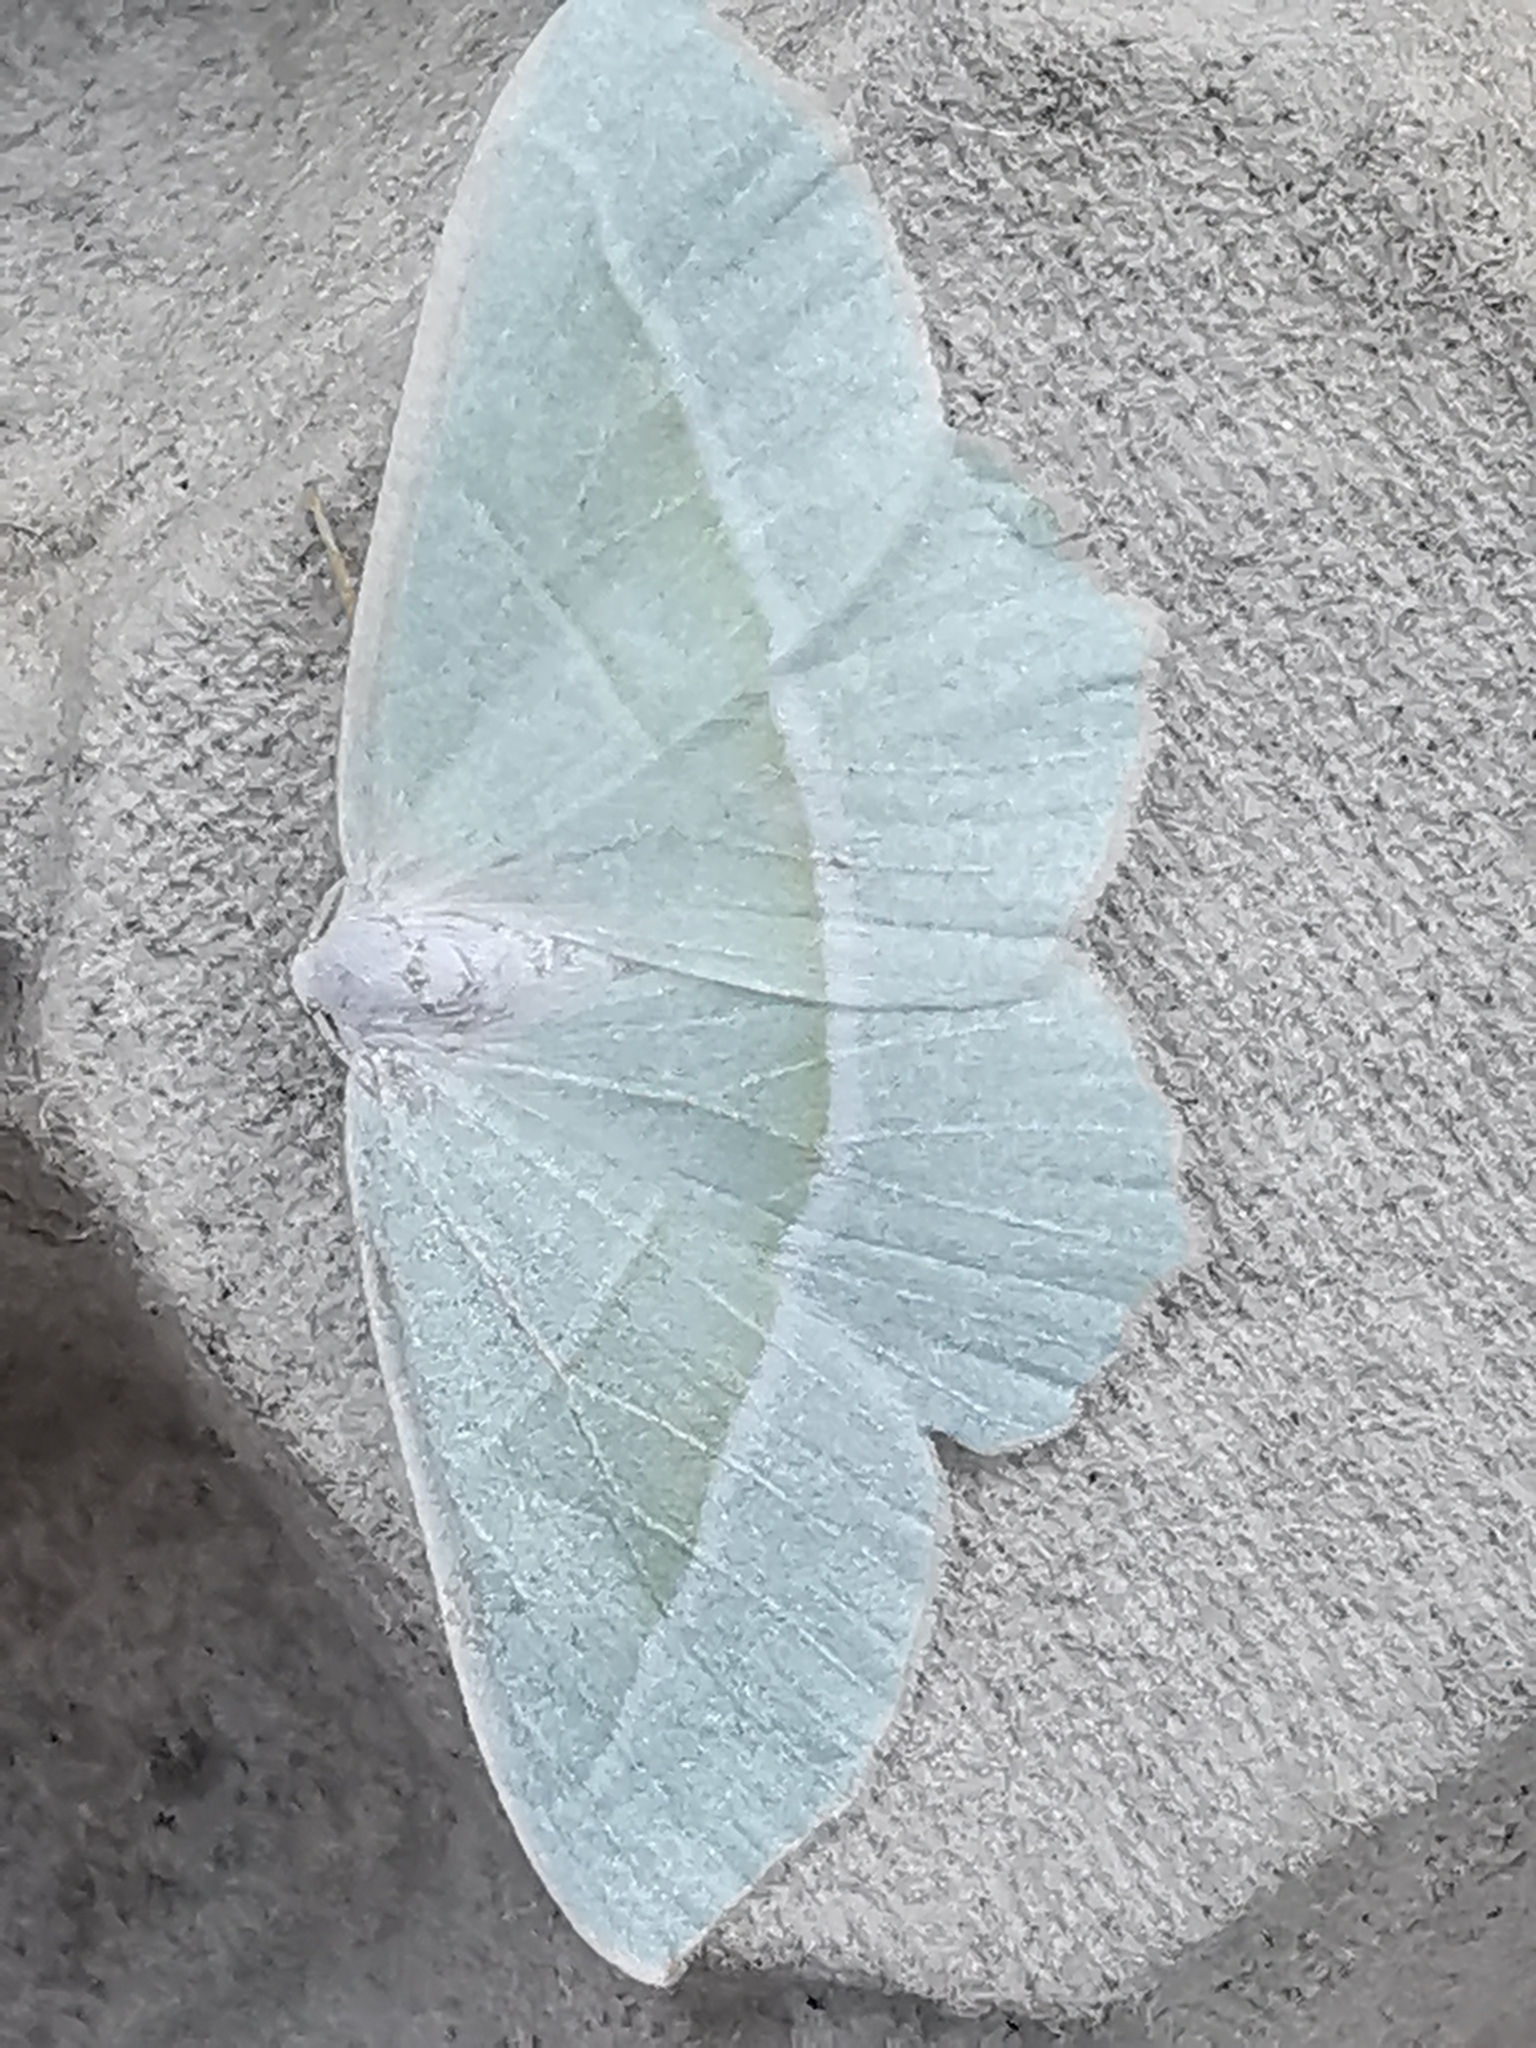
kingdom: Animalia
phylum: Arthropoda
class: Insecta
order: Lepidoptera
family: Geometridae
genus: Campaea
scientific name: Campaea margaritaria
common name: Light emerald
